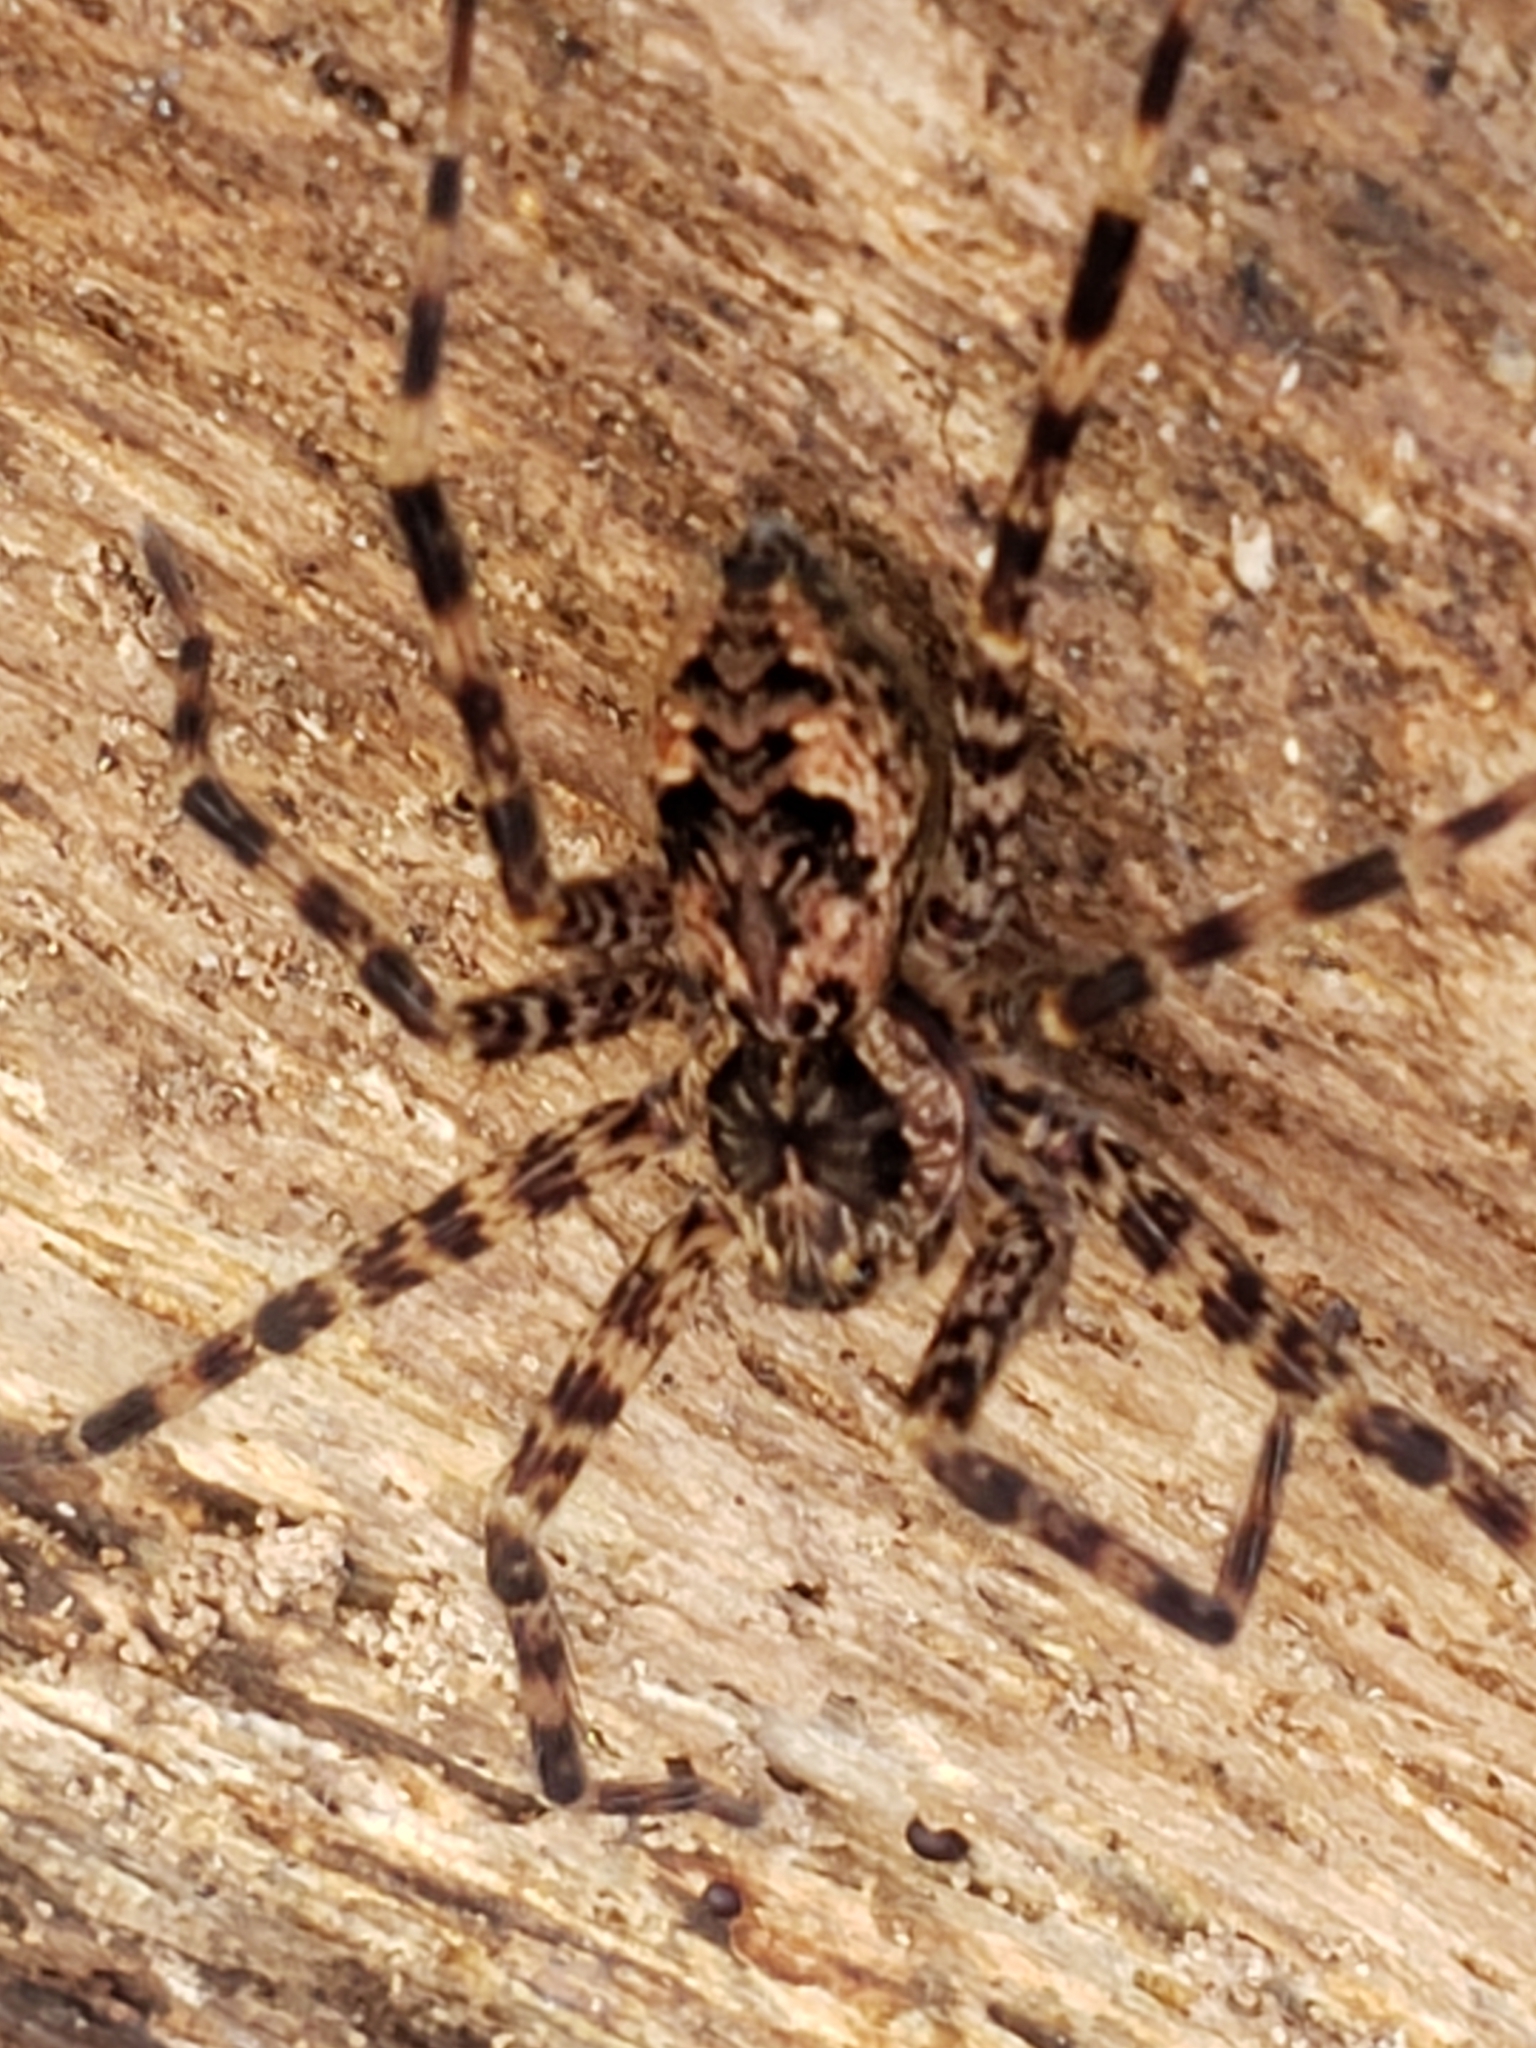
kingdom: Animalia
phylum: Arthropoda
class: Arachnida
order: Araneae
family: Pisauridae
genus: Dolomedes
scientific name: Dolomedes tenebrosus
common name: Dark fishing spider
